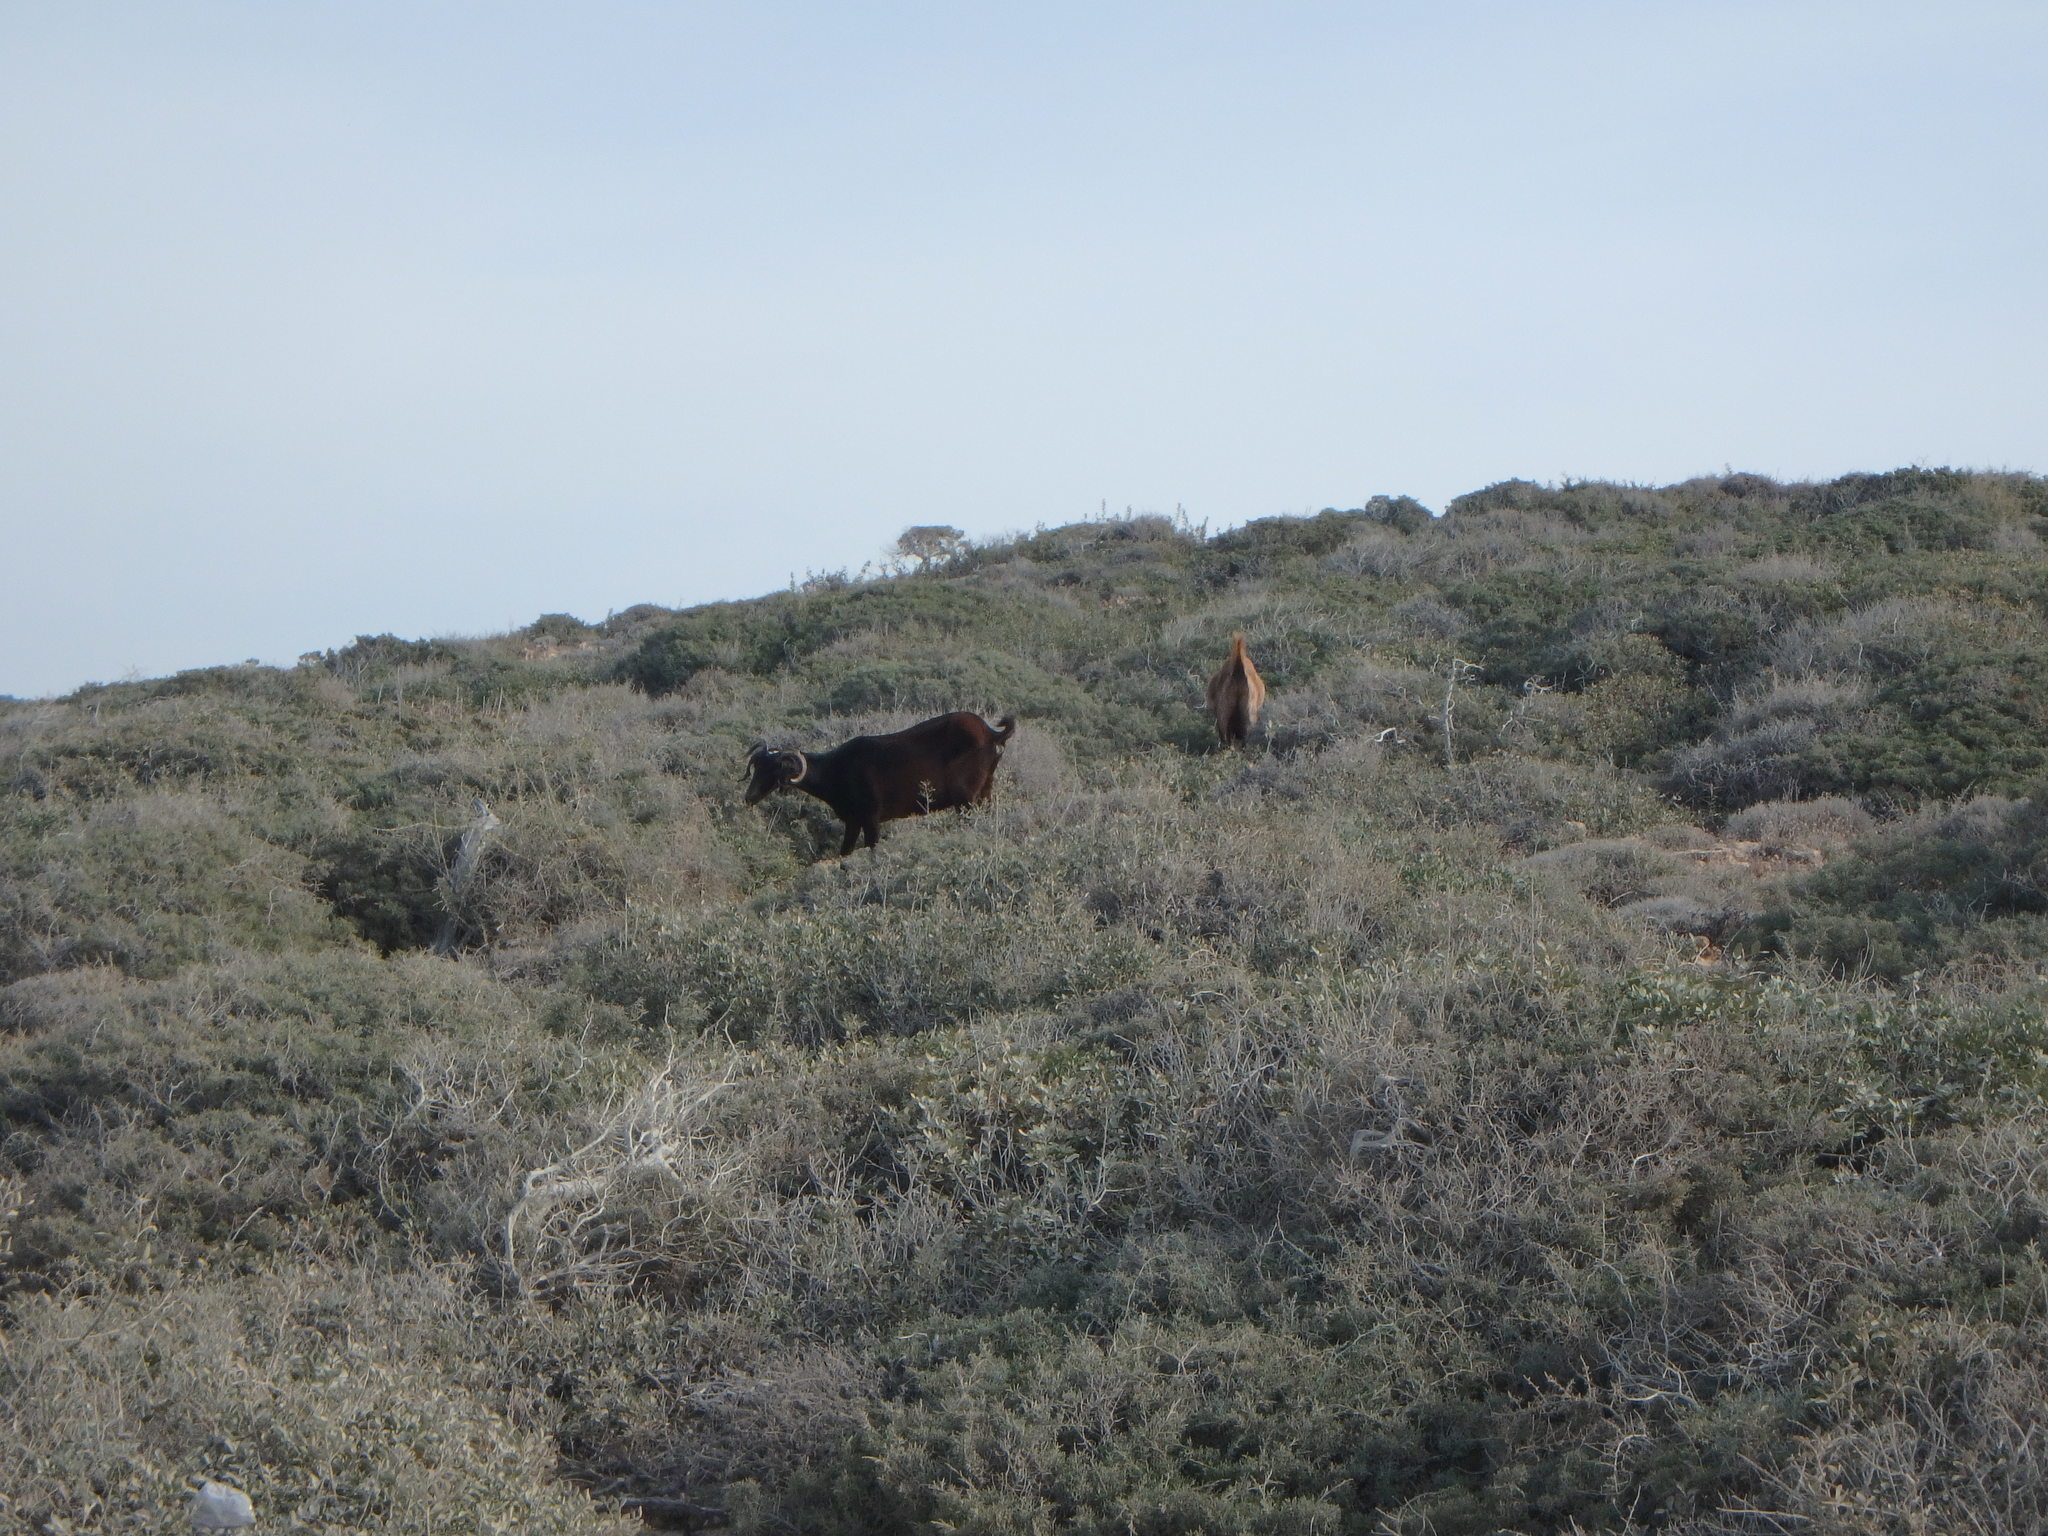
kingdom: Animalia
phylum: Chordata
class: Mammalia
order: Artiodactyla
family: Bovidae
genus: Capra
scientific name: Capra hircus
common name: Domestic goat
